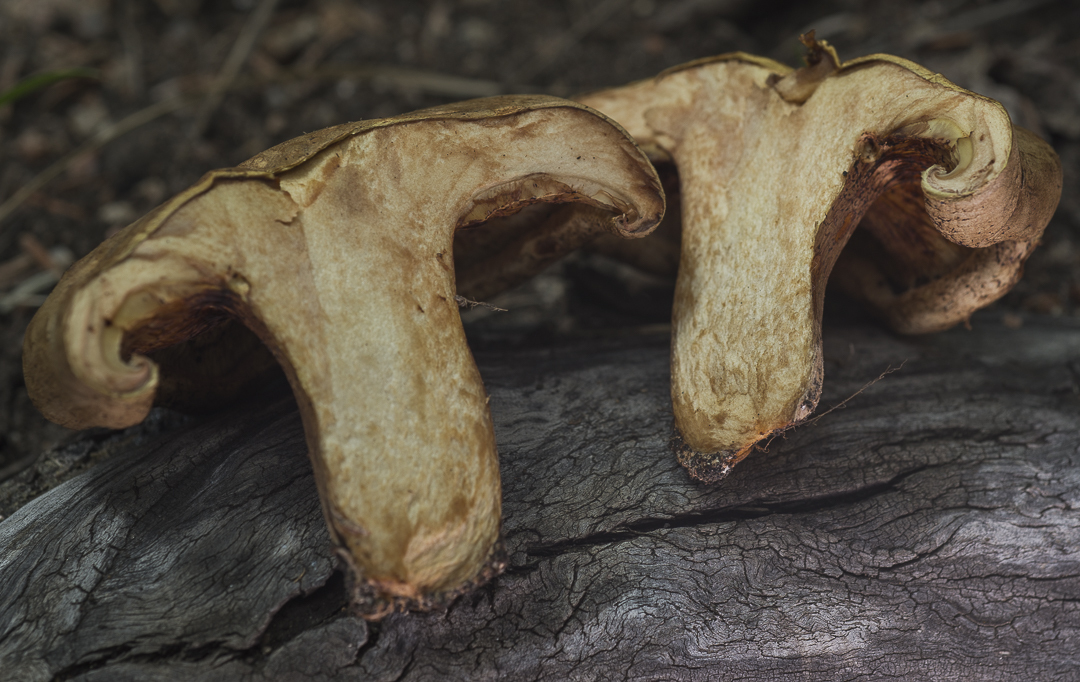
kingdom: Fungi
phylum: Basidiomycota
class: Agaricomycetes
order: Boletales
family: Paxillaceae
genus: Paxillus
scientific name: Paxillus involutus
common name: Brown roll rim
